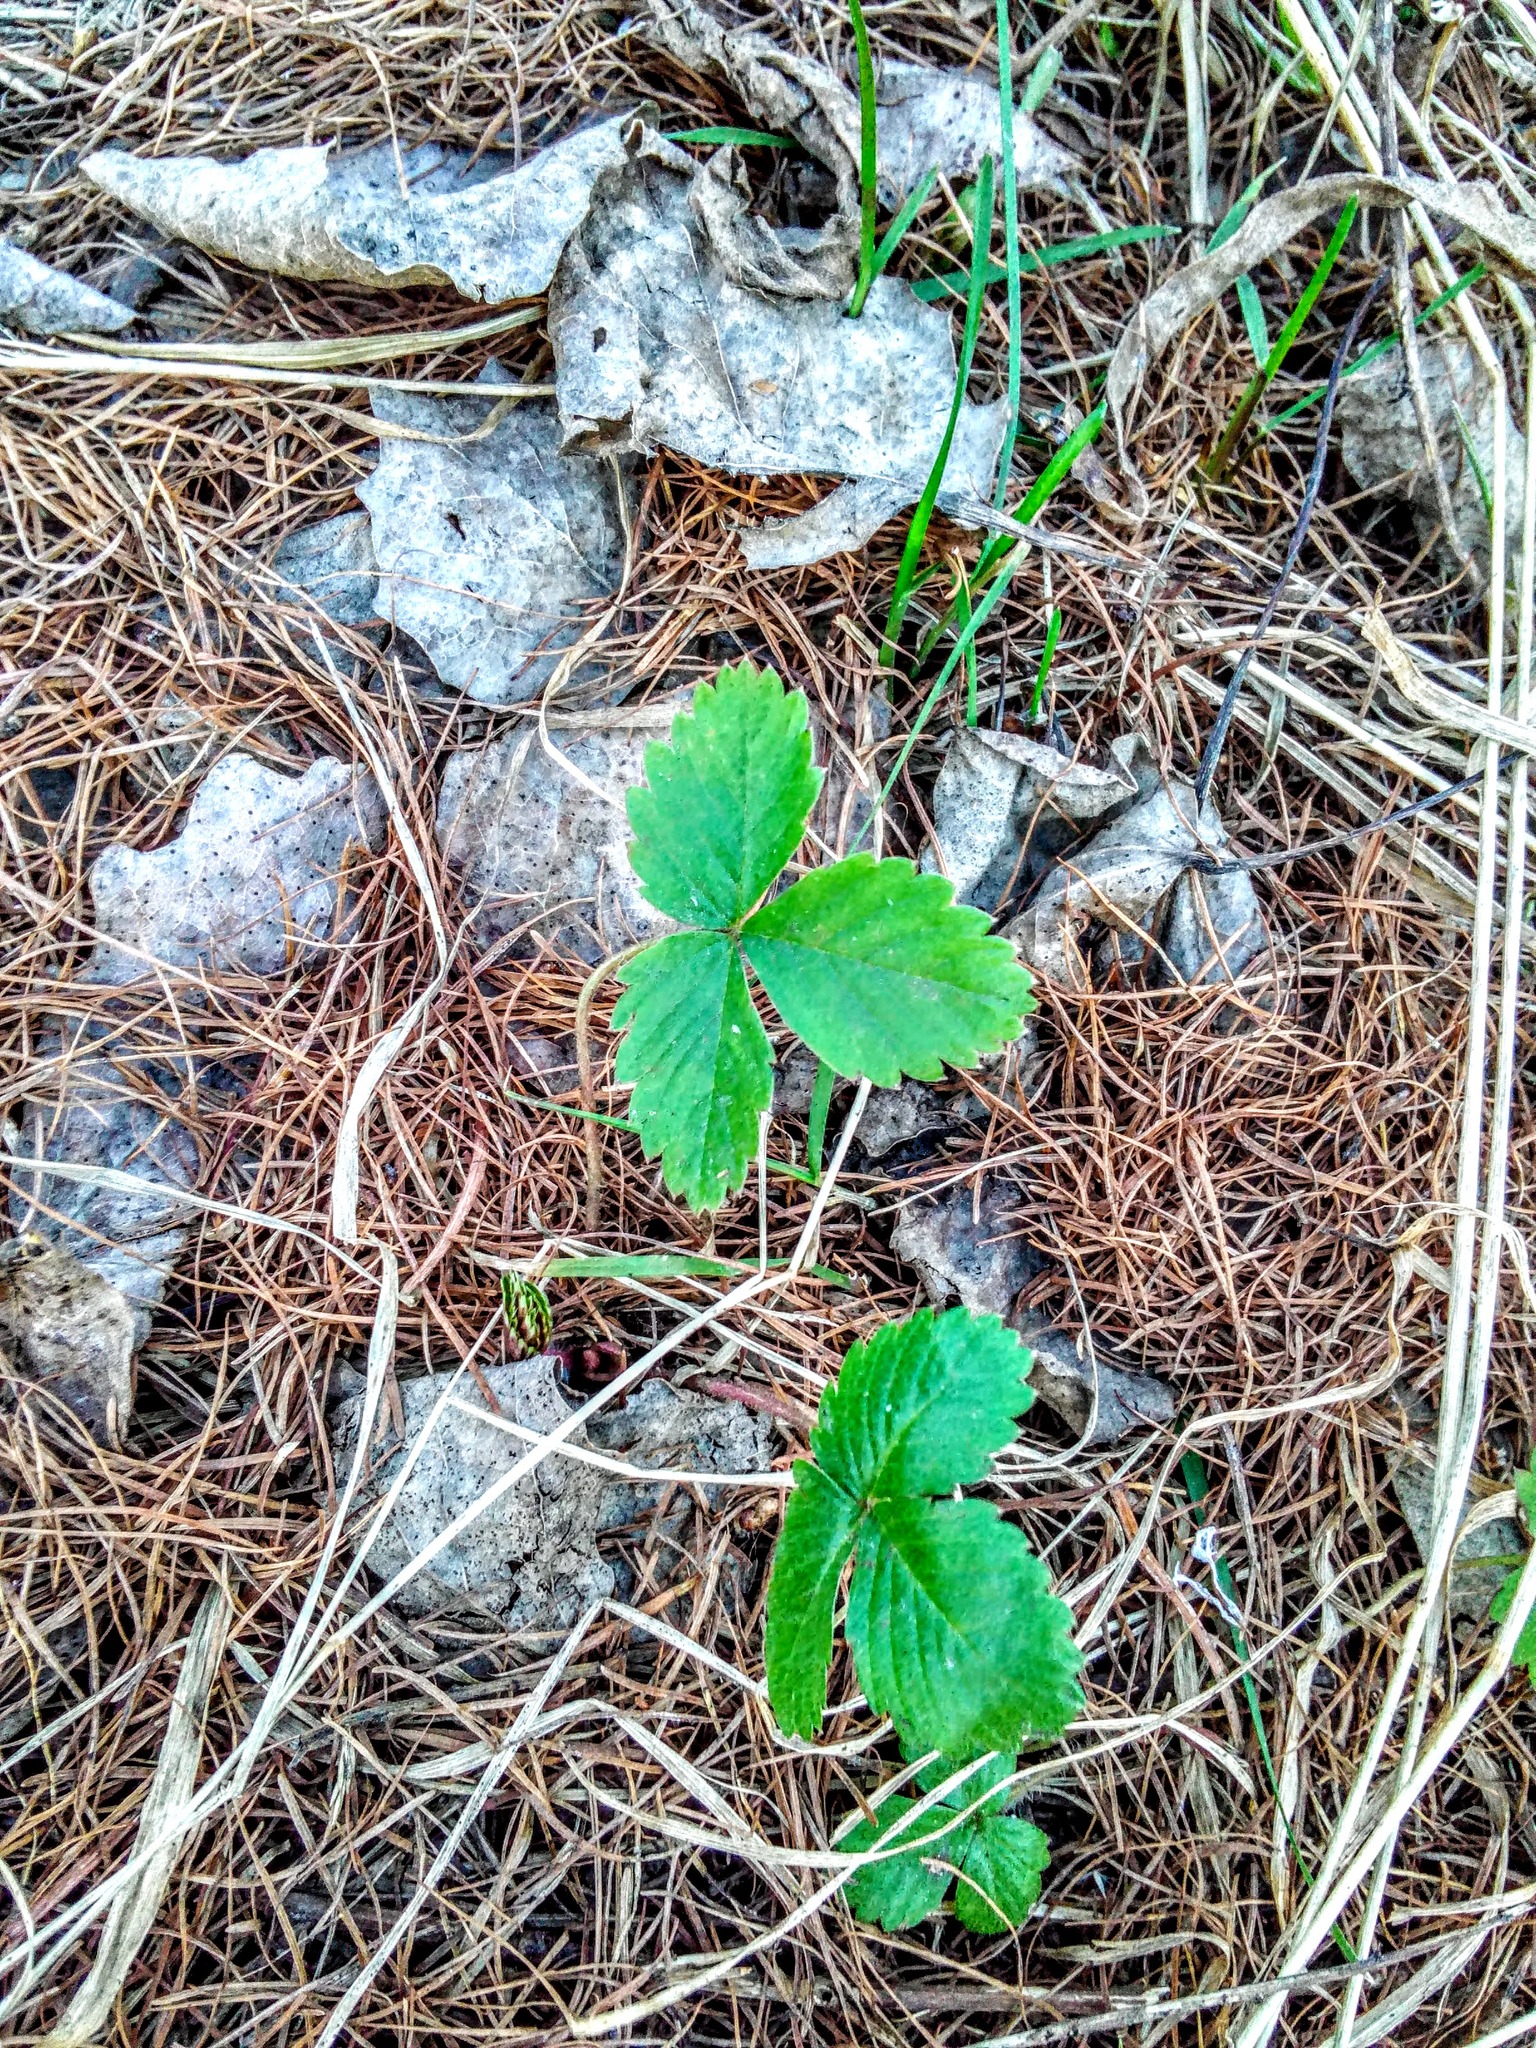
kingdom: Plantae
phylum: Tracheophyta
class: Magnoliopsida
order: Rosales
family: Rosaceae
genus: Fragaria
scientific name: Fragaria vesca
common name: Wild strawberry
